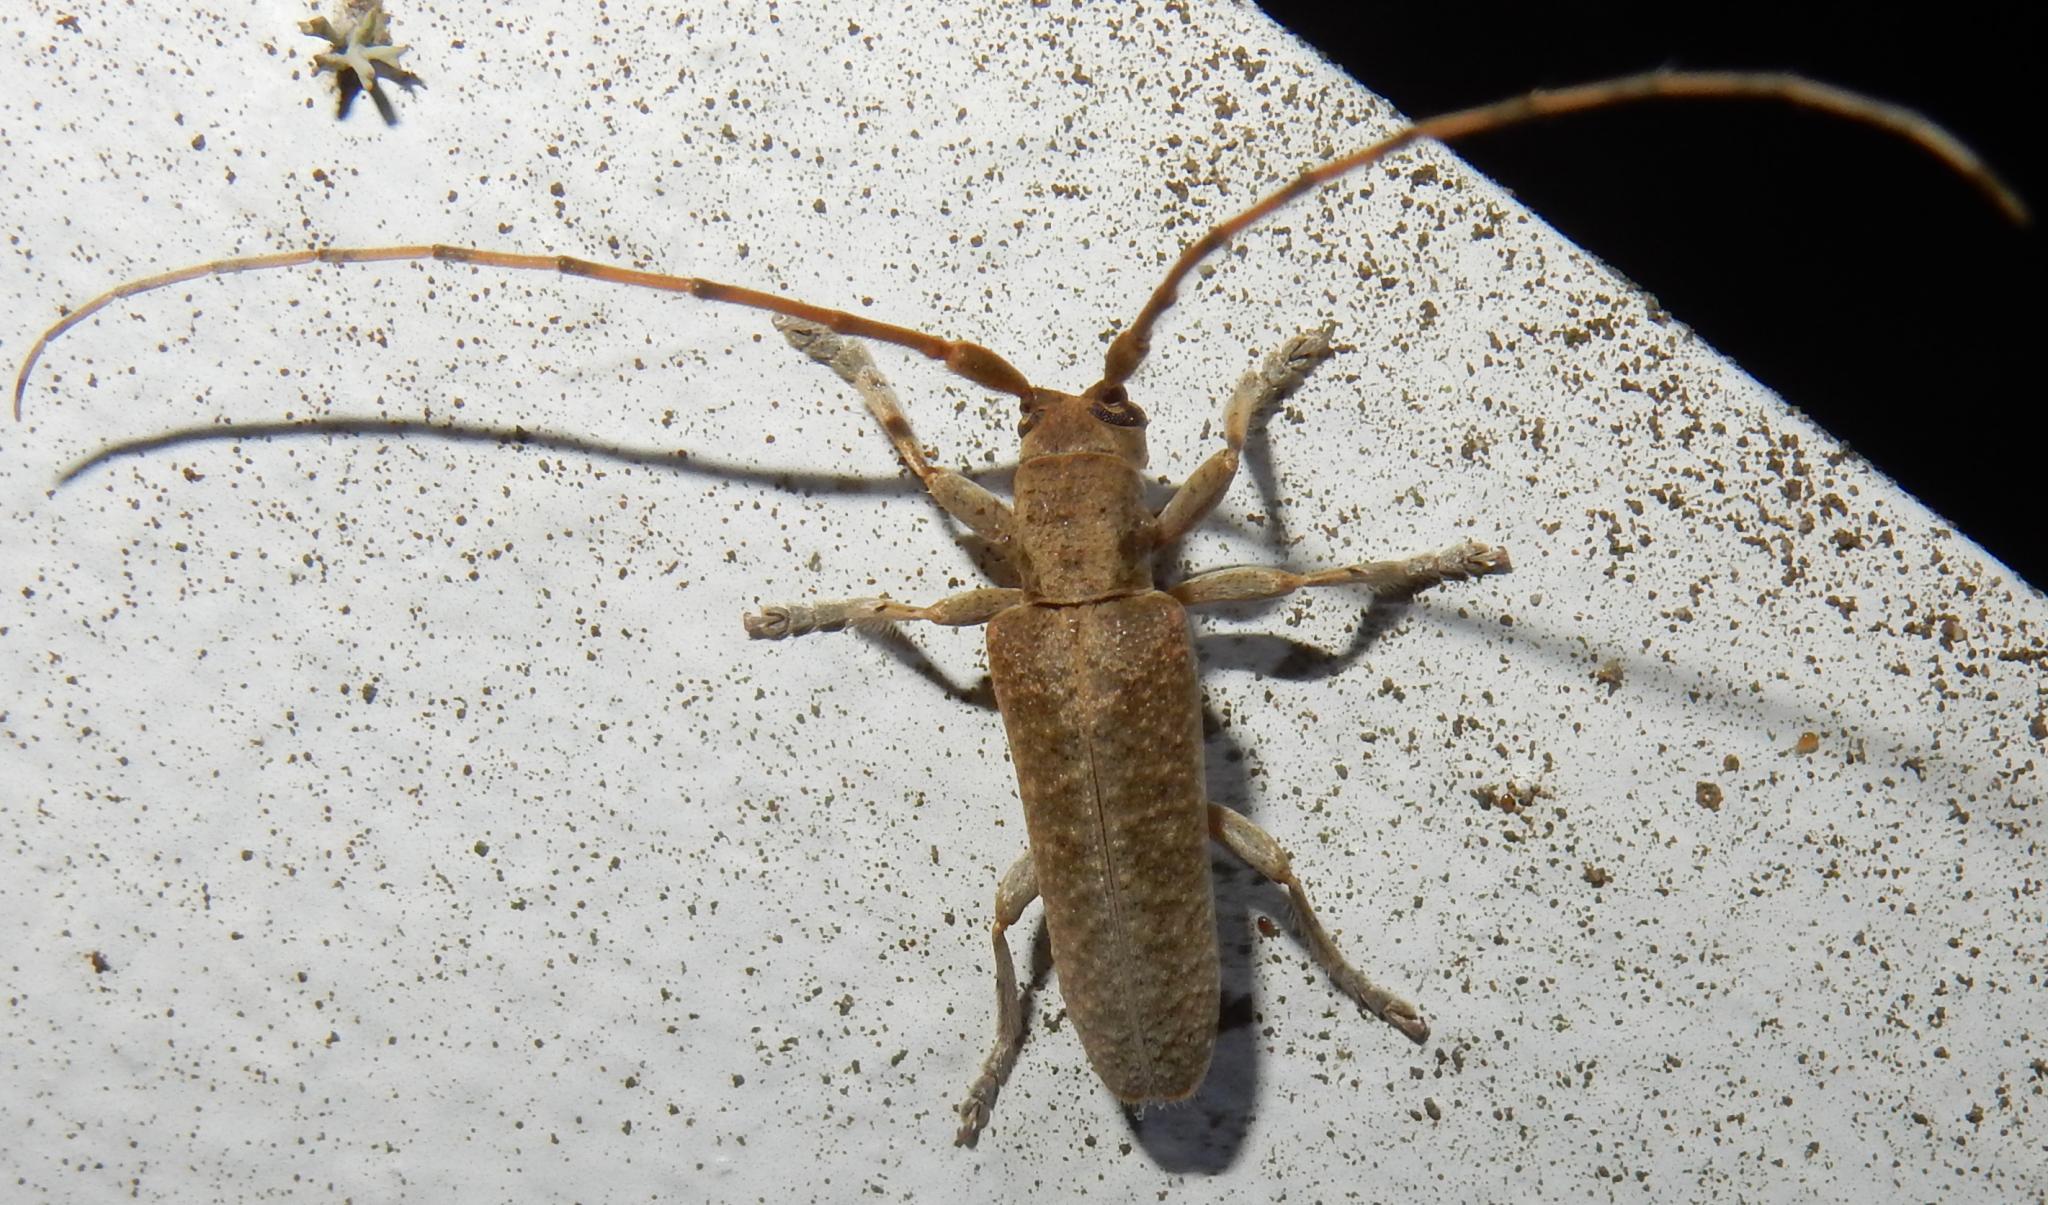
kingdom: Animalia
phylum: Arthropoda
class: Insecta
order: Coleoptera
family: Cerambycidae
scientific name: Cerambycidae
